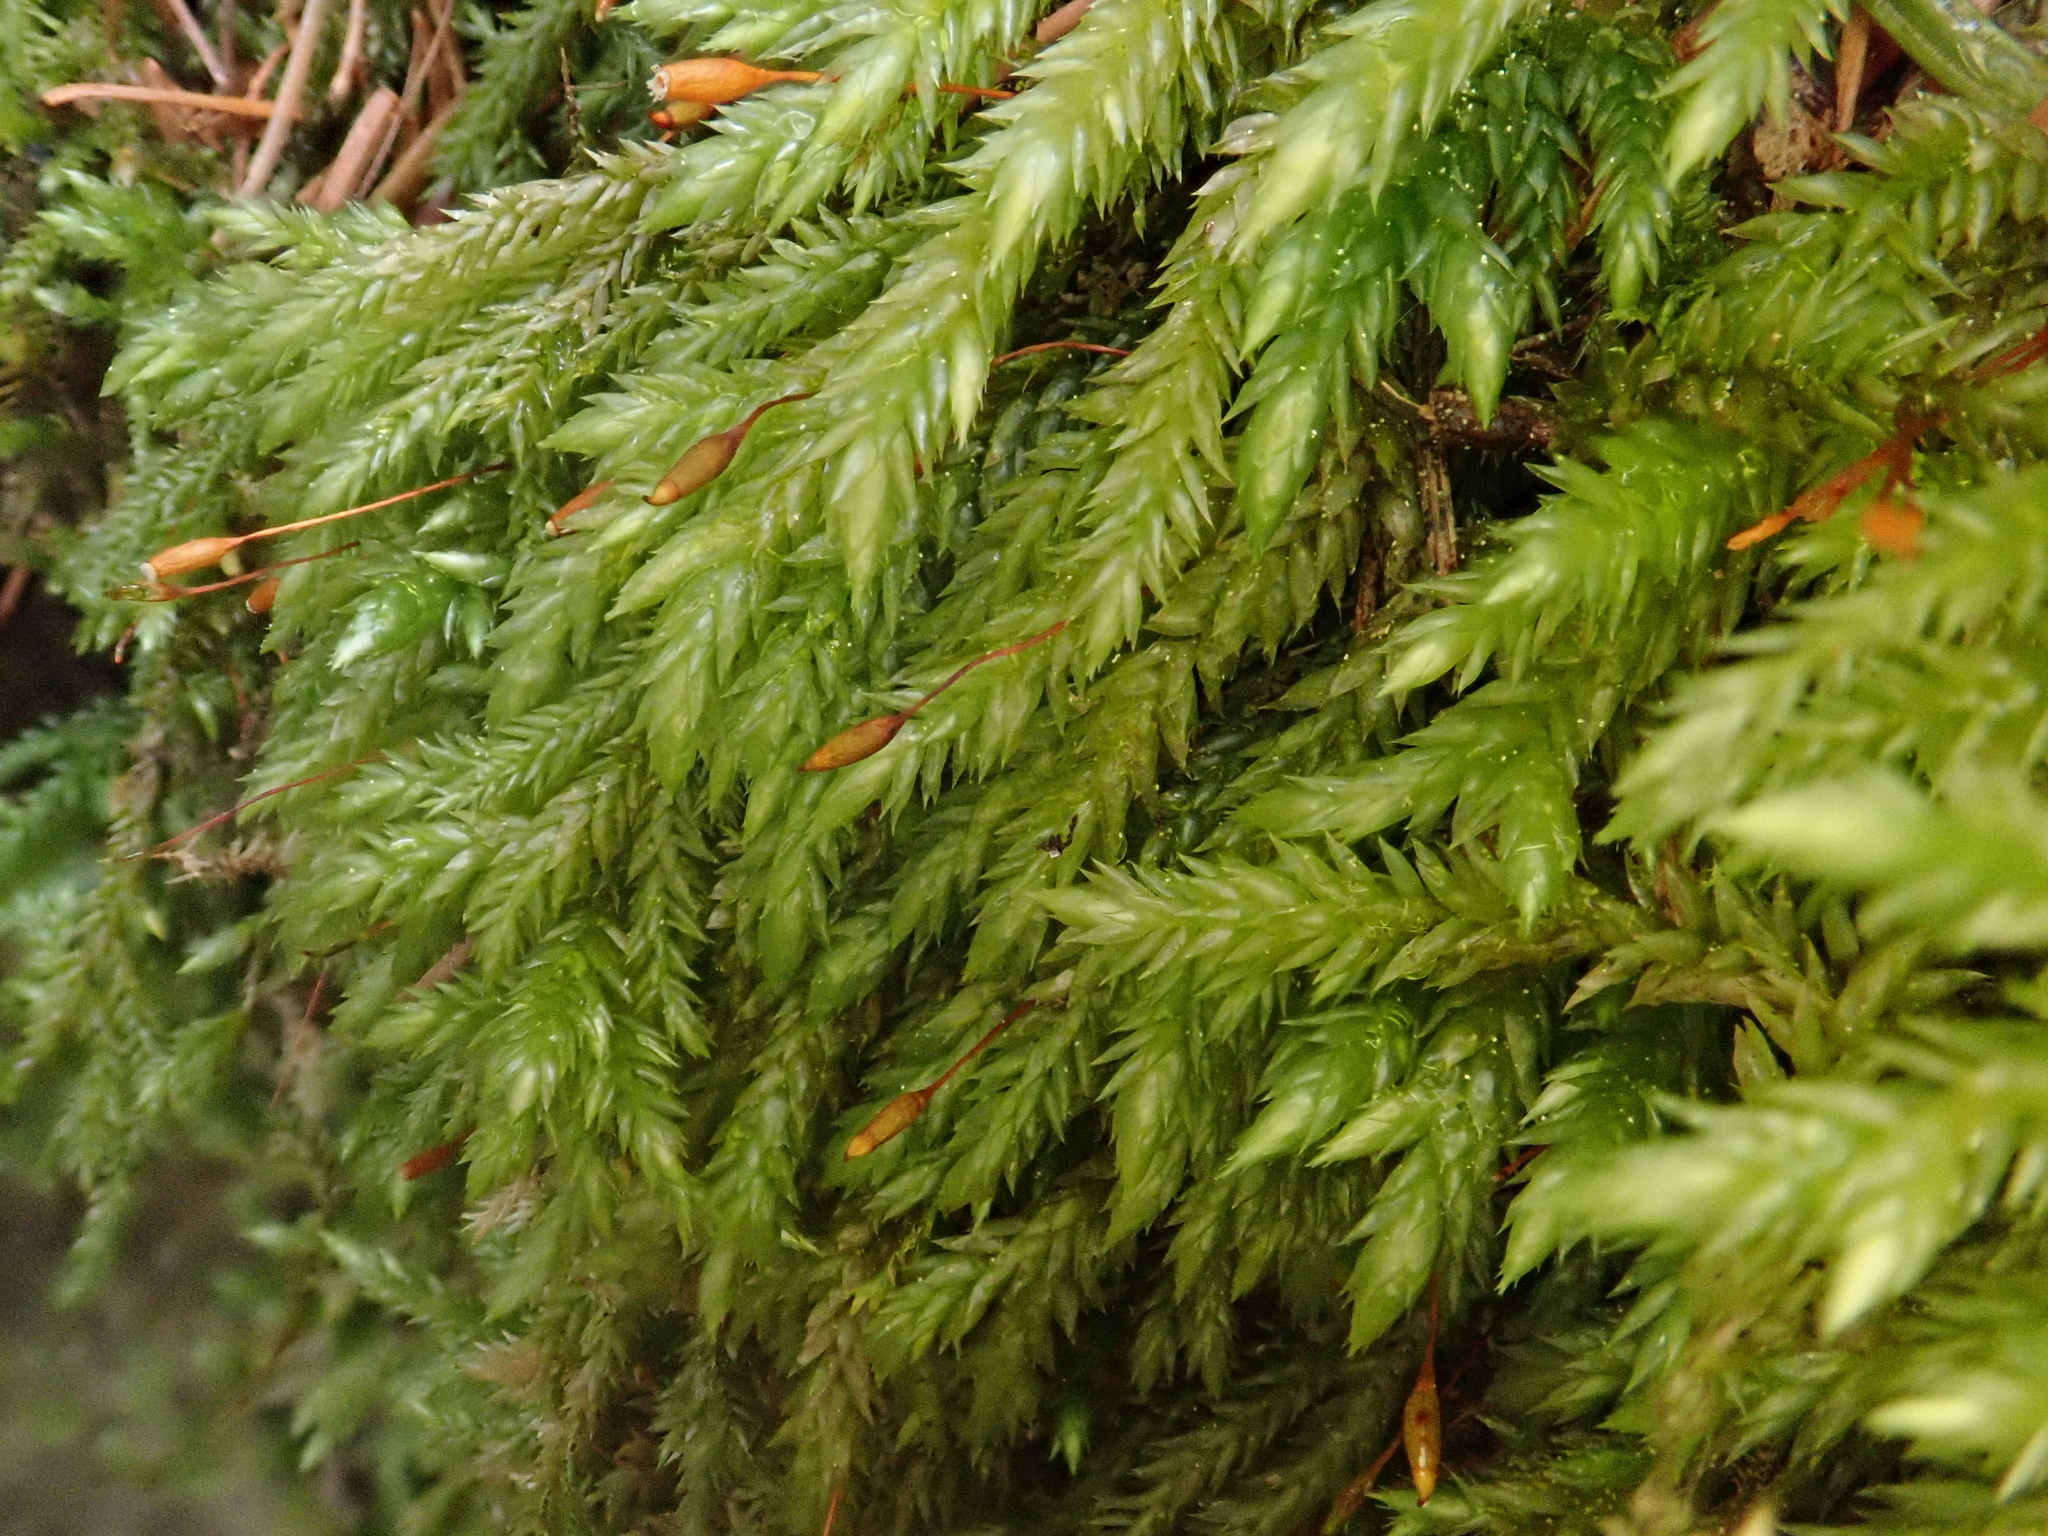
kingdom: Plantae
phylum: Bryophyta
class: Bryopsida
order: Hypnales
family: Lembophyllaceae
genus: Isothecium
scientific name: Isothecium alopecuroides
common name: Larger mouse-tail moss
